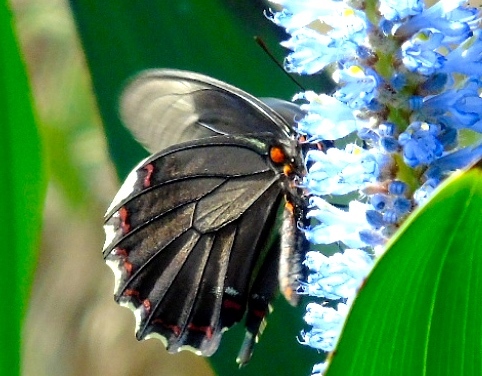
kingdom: Animalia
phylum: Arthropoda
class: Insecta
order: Lepidoptera
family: Papilionidae
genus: Battus
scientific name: Battus polydamas
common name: Polydamas swallowtail
